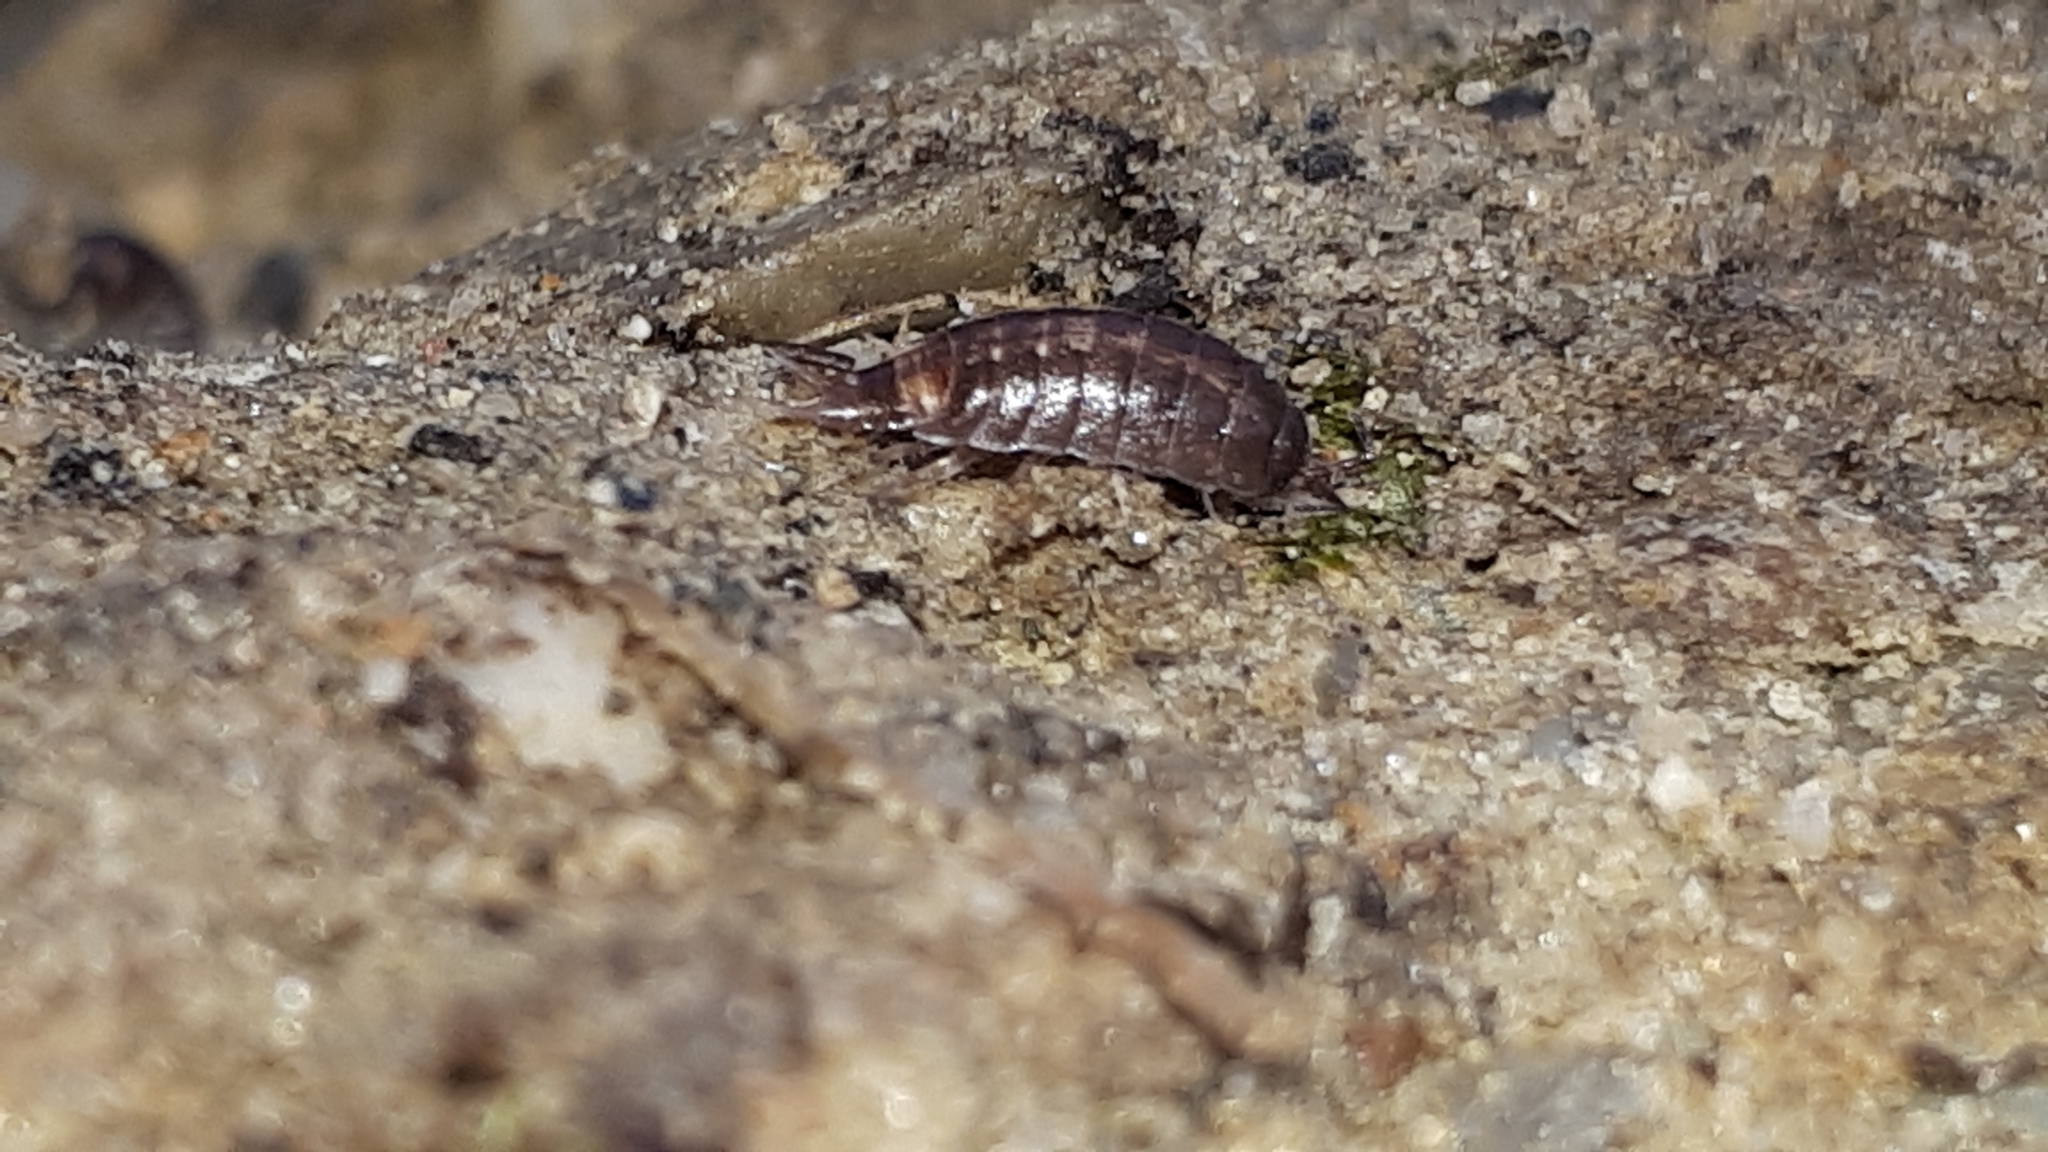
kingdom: Animalia
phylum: Arthropoda
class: Malacostraca
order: Isopoda
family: Trichoniscidae
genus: Hyloniscus
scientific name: Hyloniscus riparius
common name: Isopod
